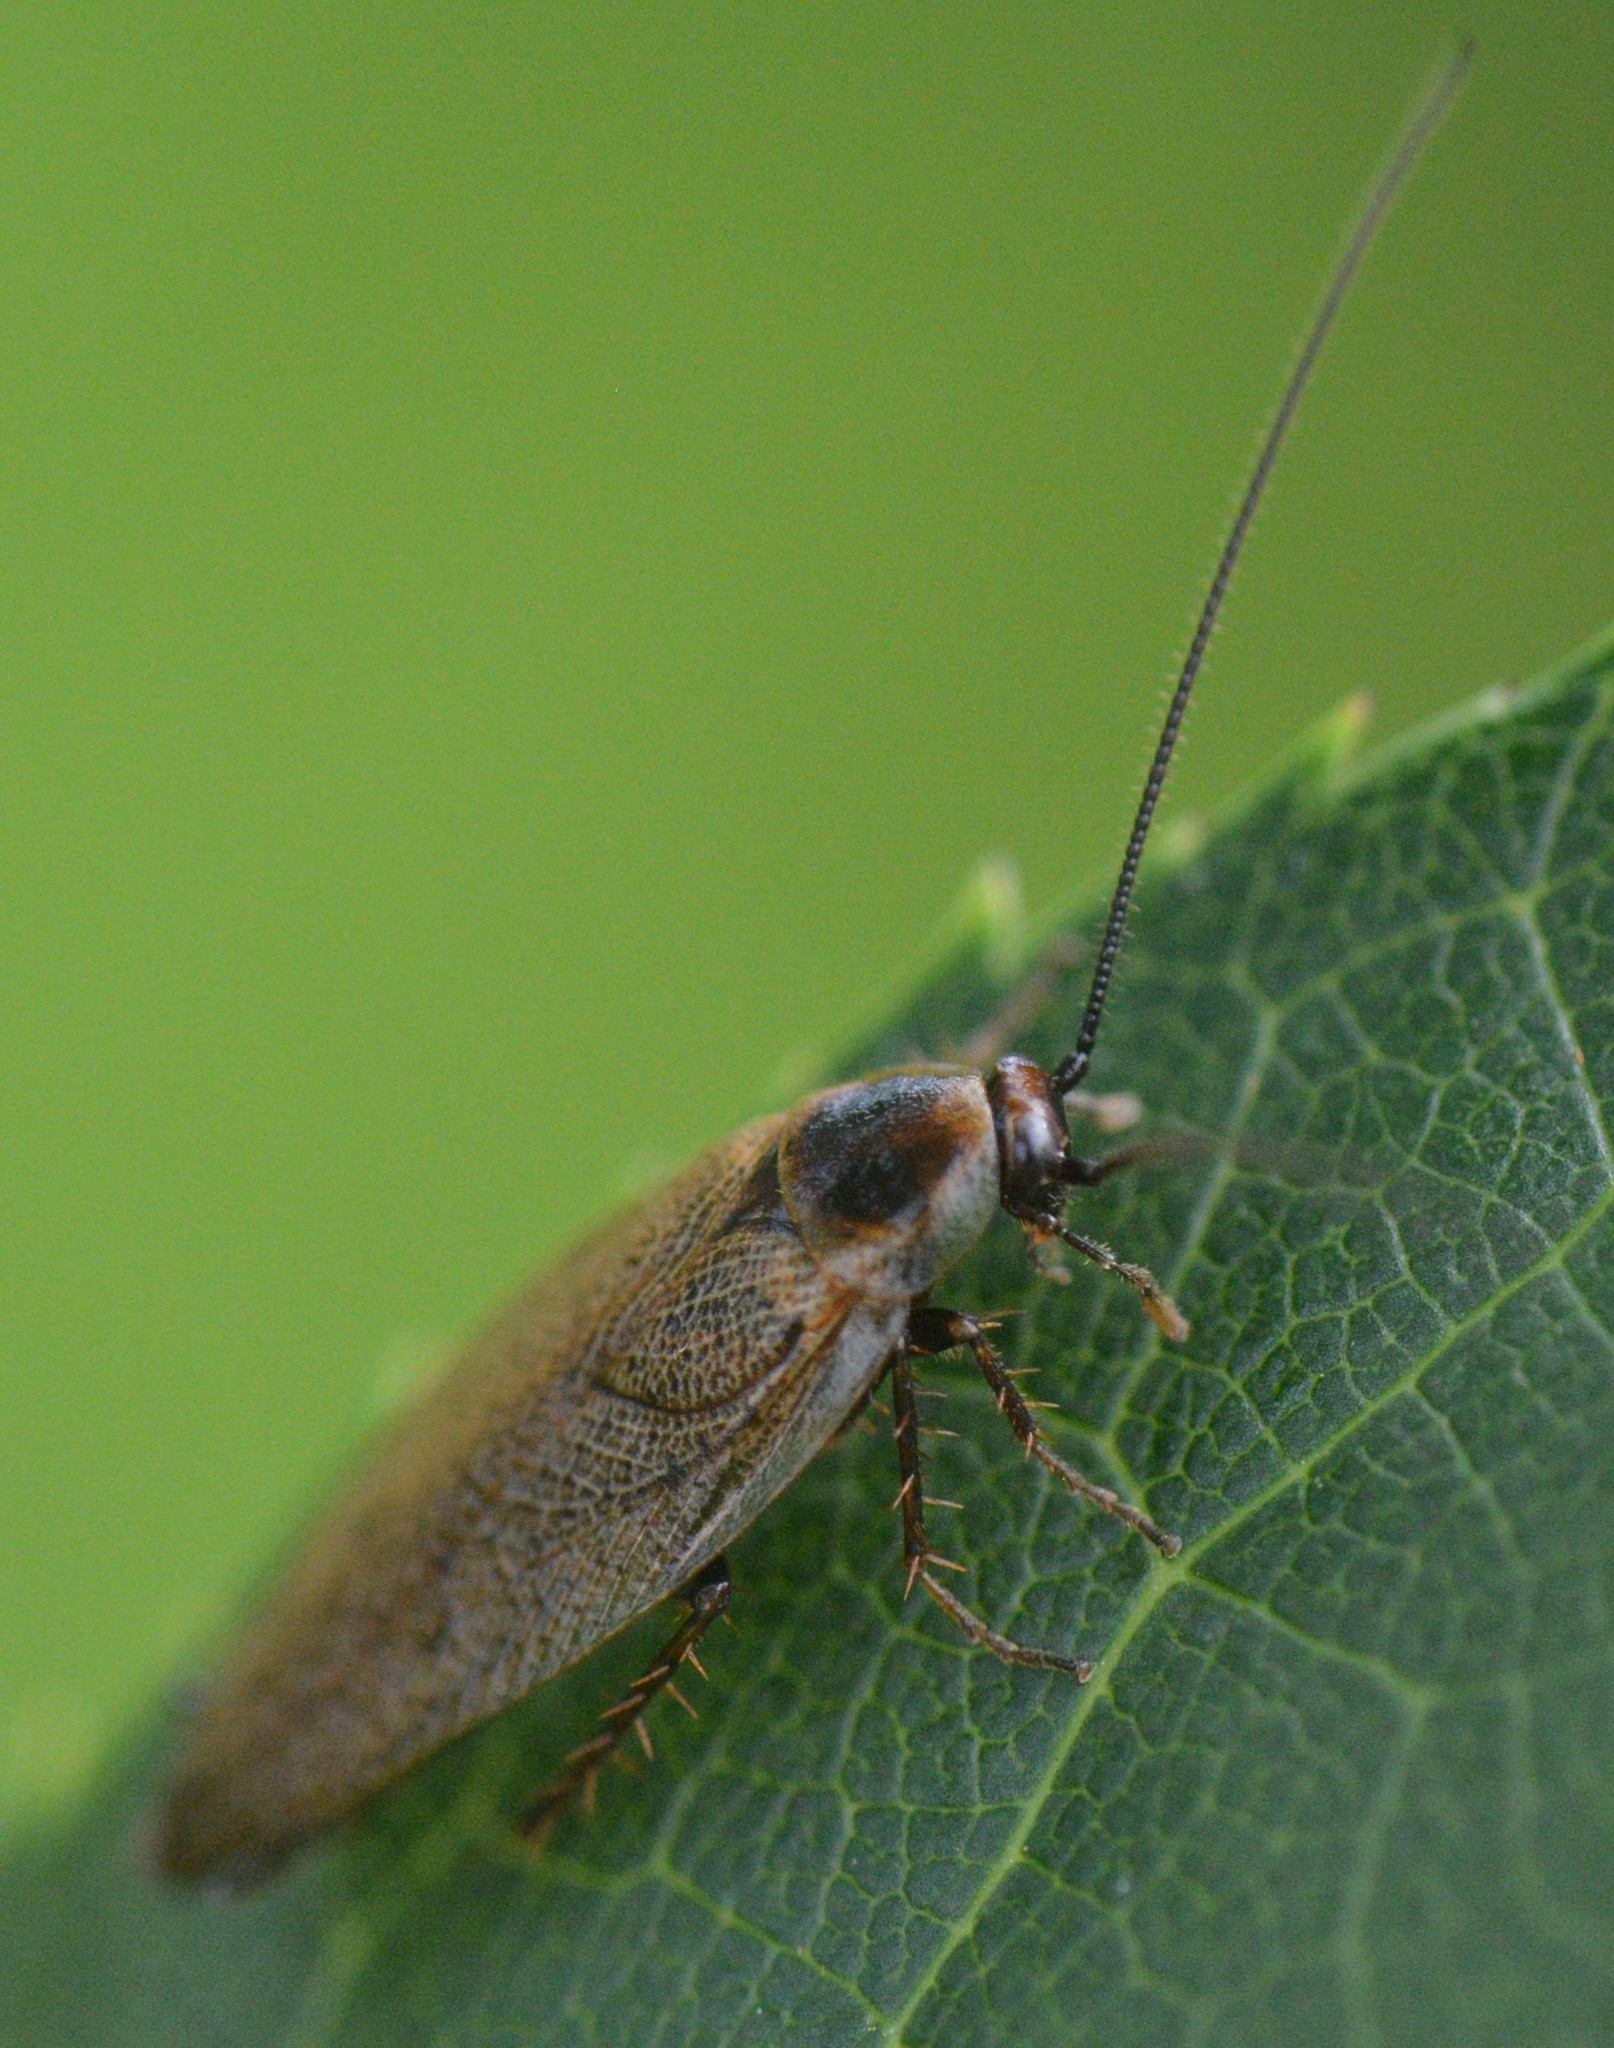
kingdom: Animalia
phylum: Arthropoda
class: Insecta
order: Blattodea
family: Ectobiidae
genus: Ectobius
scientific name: Ectobius lapponicus
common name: Dusky cockroach
